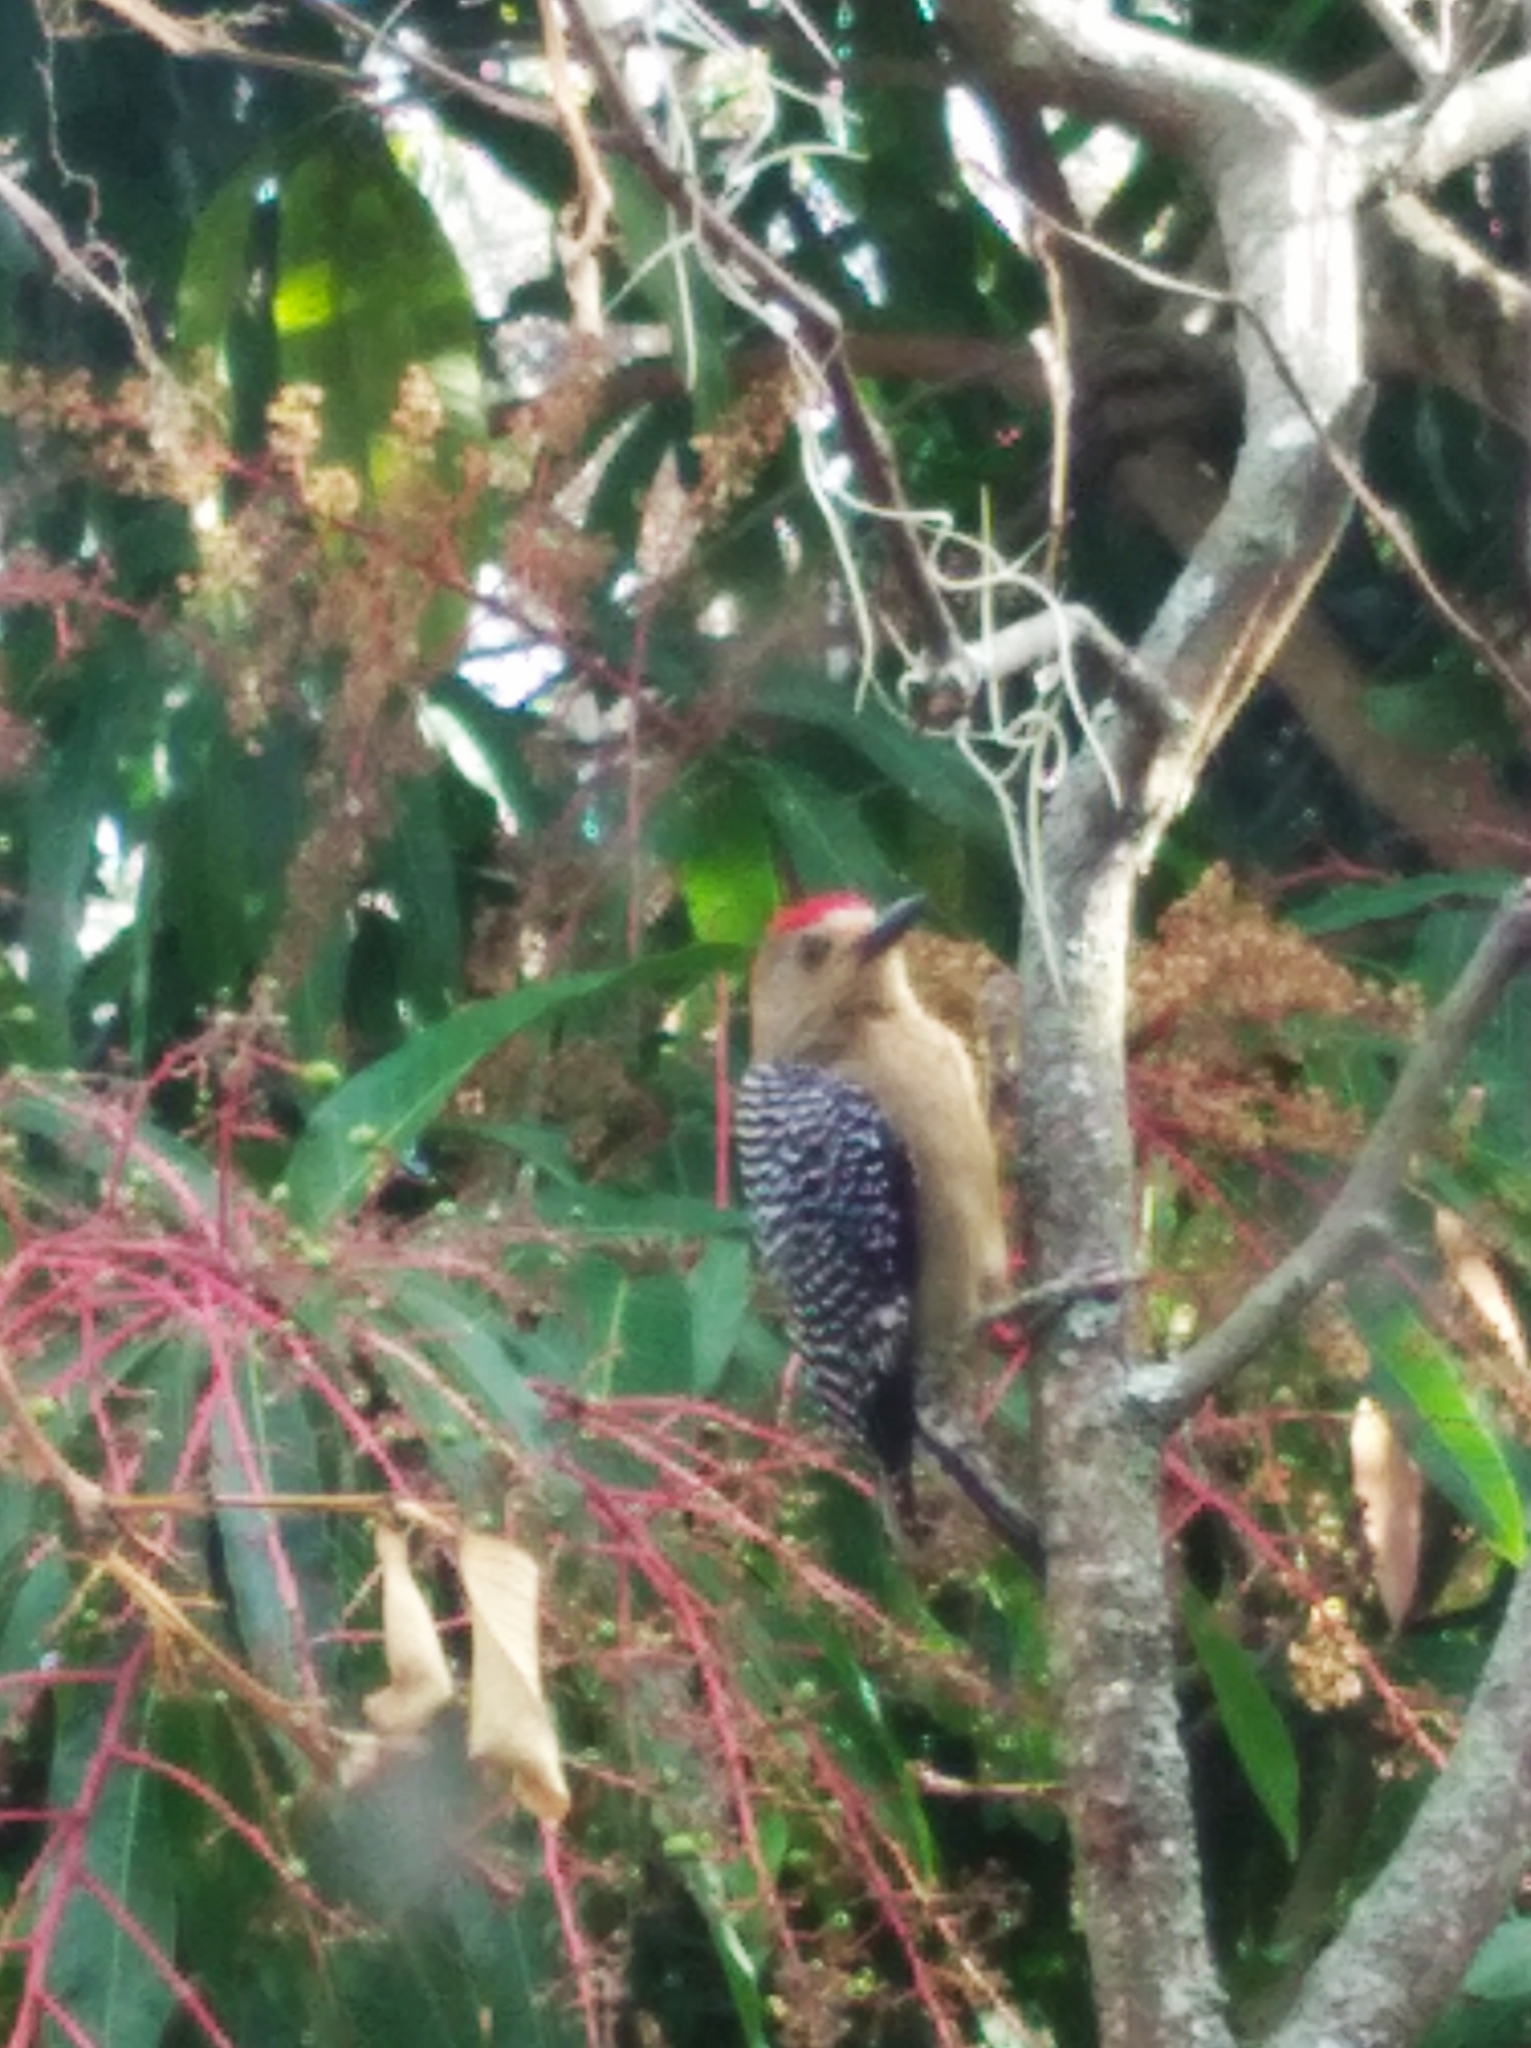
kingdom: Animalia
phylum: Chordata
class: Aves
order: Piciformes
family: Picidae
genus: Melanerpes
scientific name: Melanerpes rubricapillus
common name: Red-crowned woodpecker
